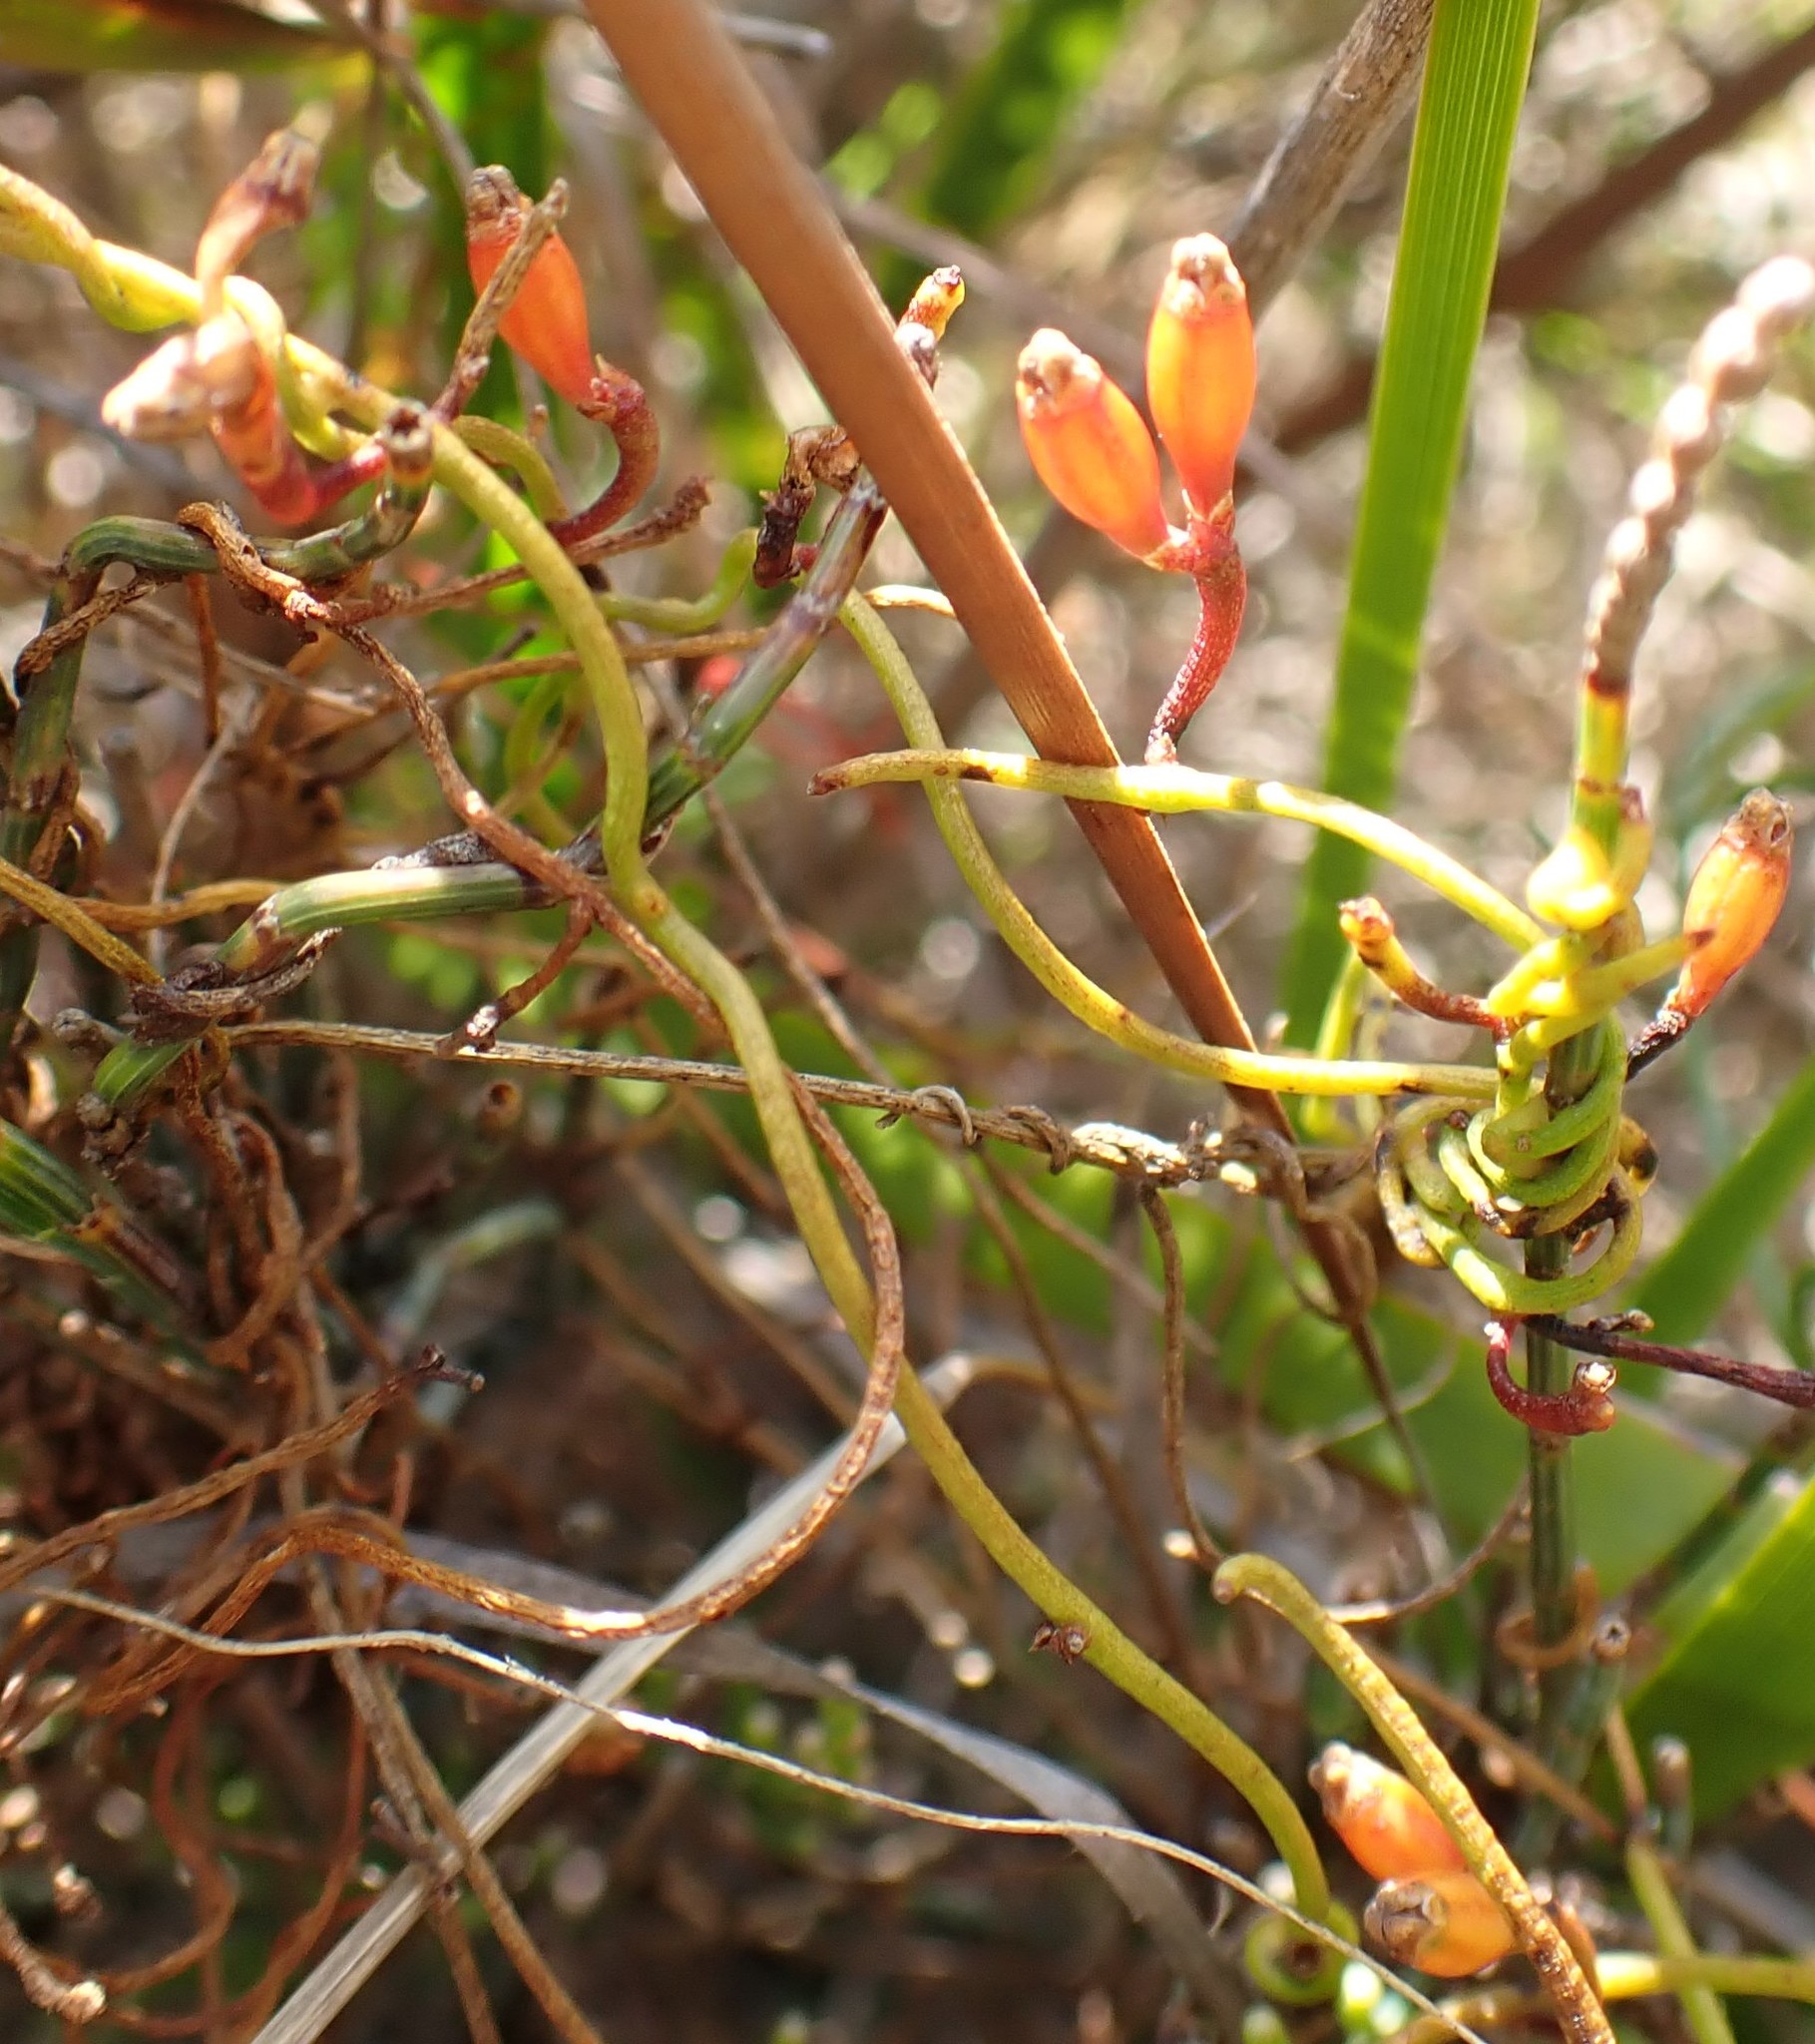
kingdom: Plantae
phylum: Tracheophyta
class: Magnoliopsida
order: Laurales
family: Lauraceae
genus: Cassytha
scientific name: Cassytha glabella
